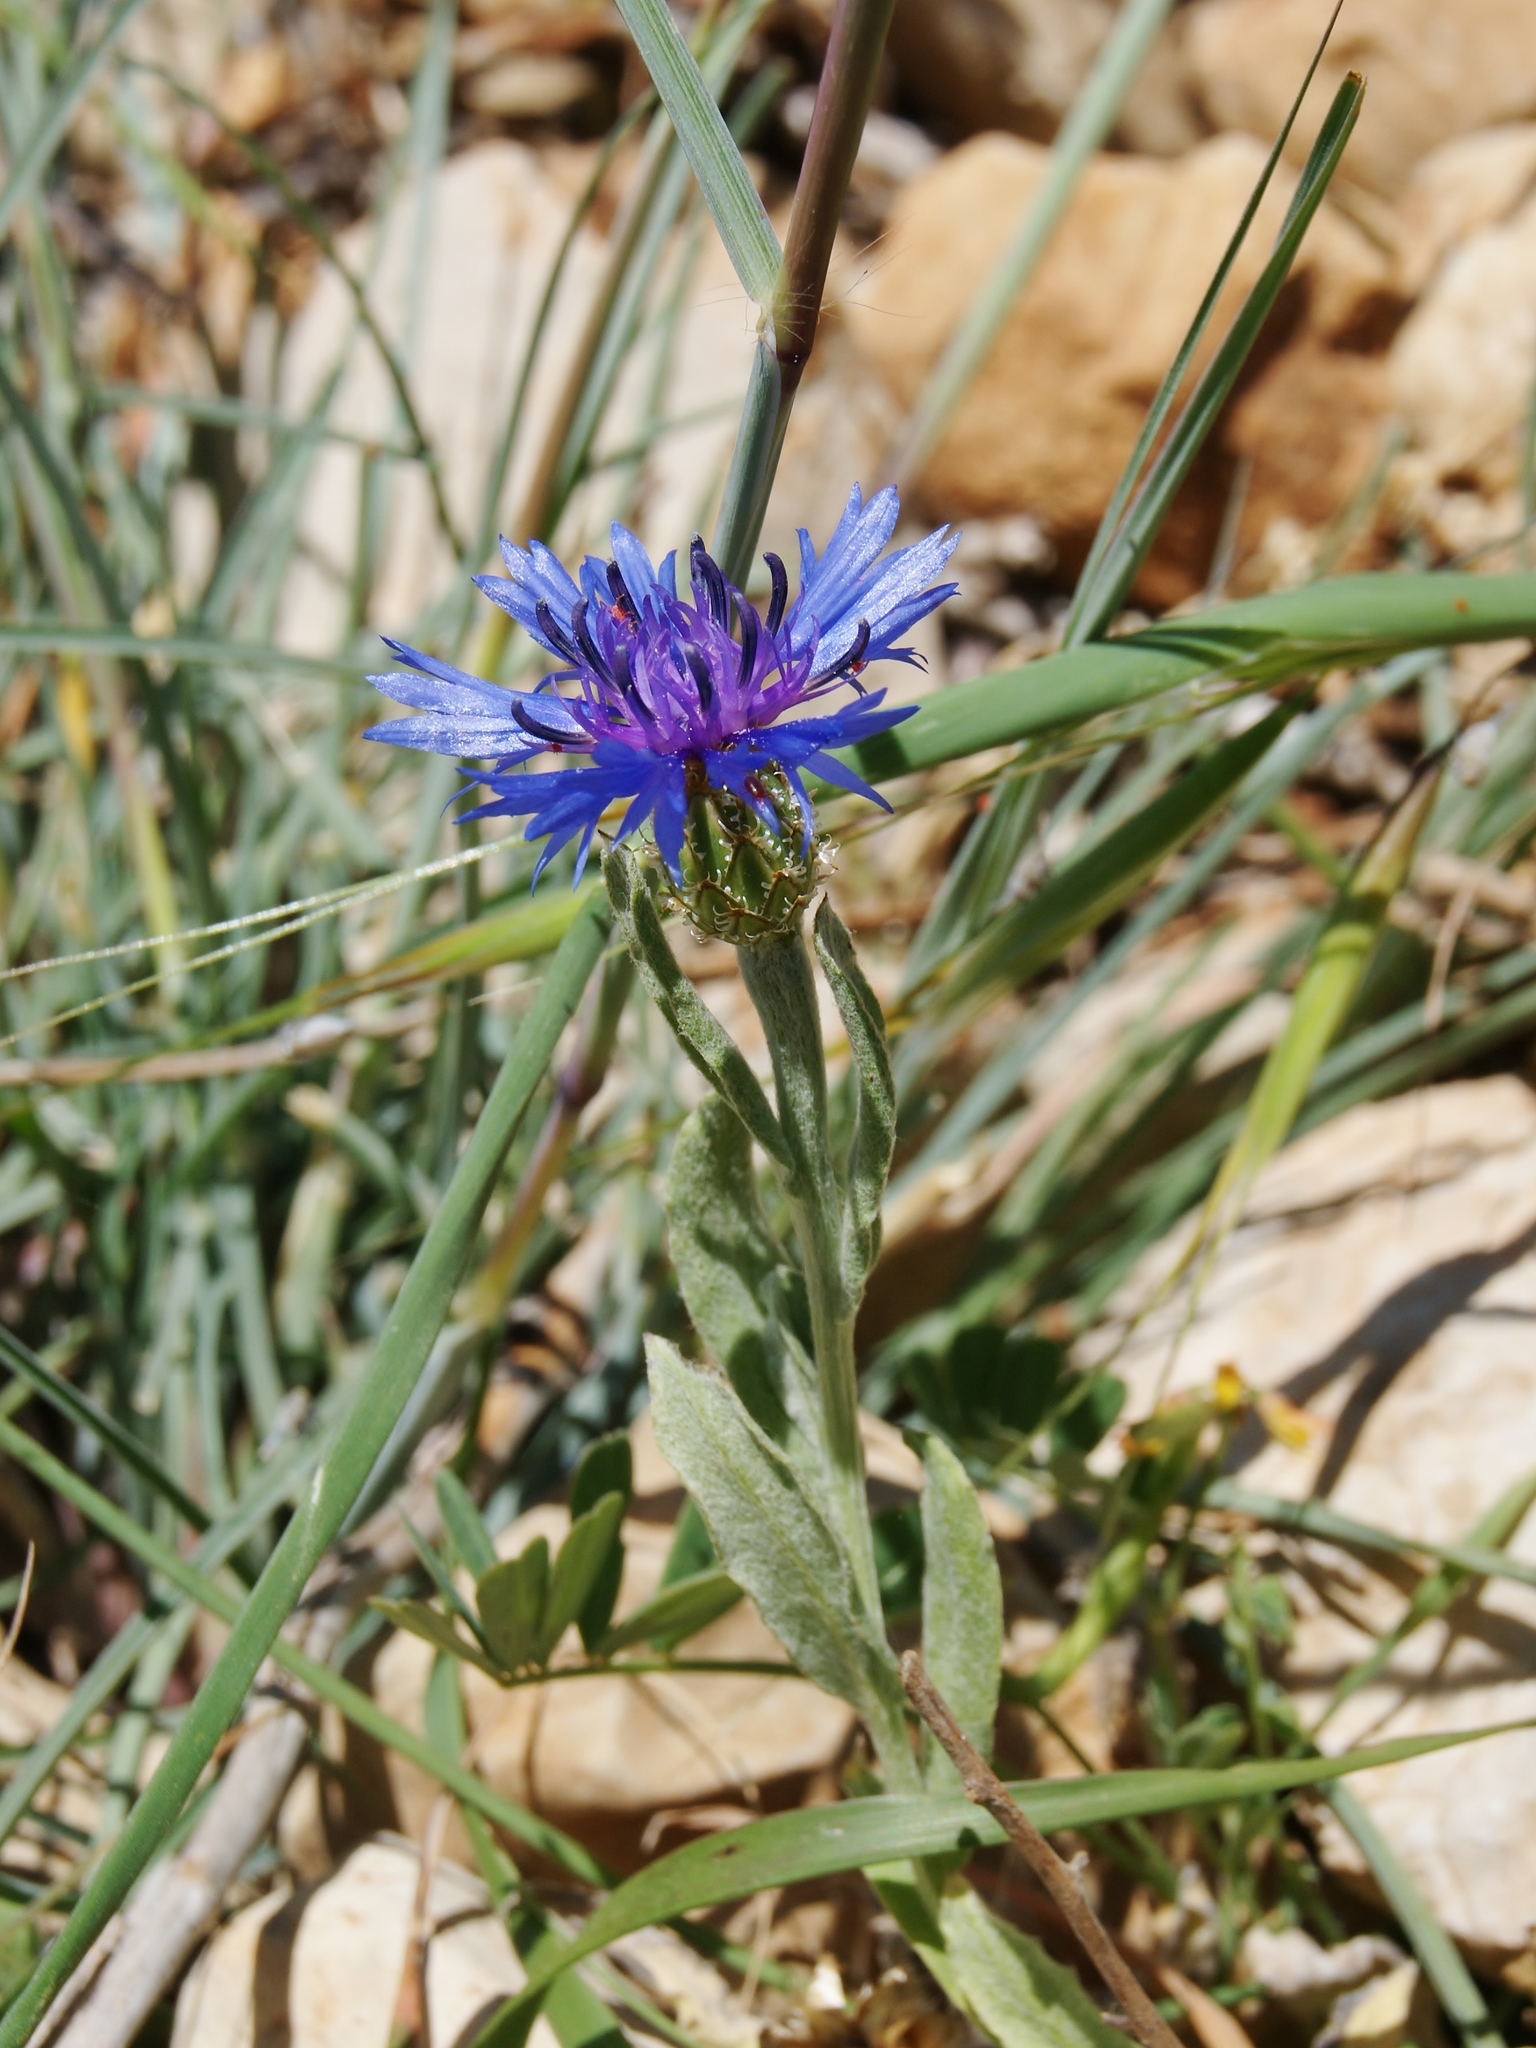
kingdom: Plantae
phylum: Tracheophyta
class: Magnoliopsida
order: Asterales
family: Asteraceae
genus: Centaurea
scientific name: Centaurea cyanoides
